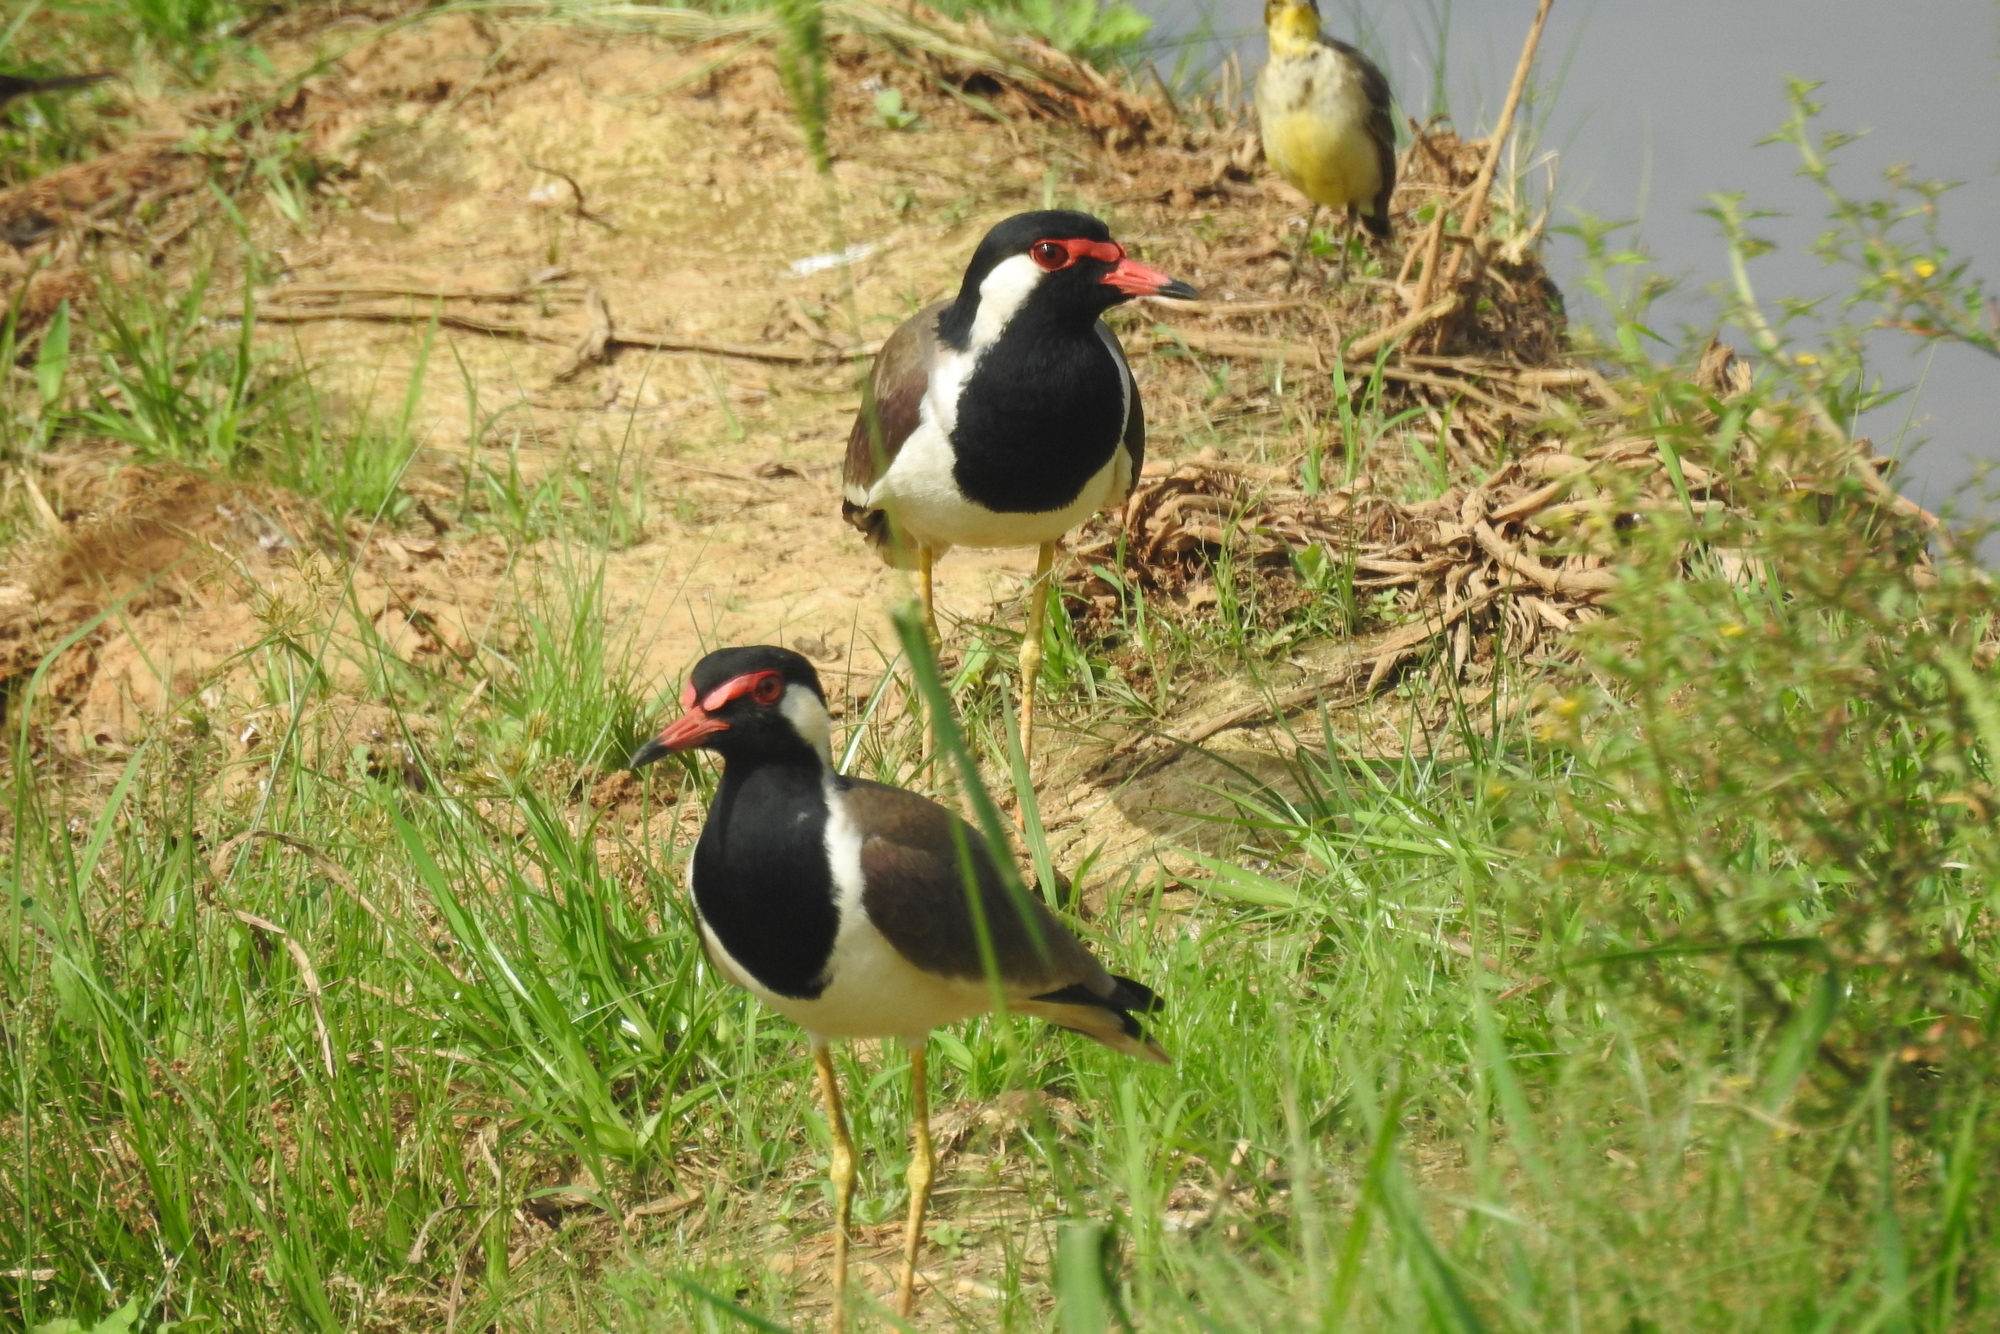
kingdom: Animalia
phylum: Chordata
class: Aves
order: Charadriiformes
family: Charadriidae
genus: Vanellus
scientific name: Vanellus indicus
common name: Red-wattled lapwing
